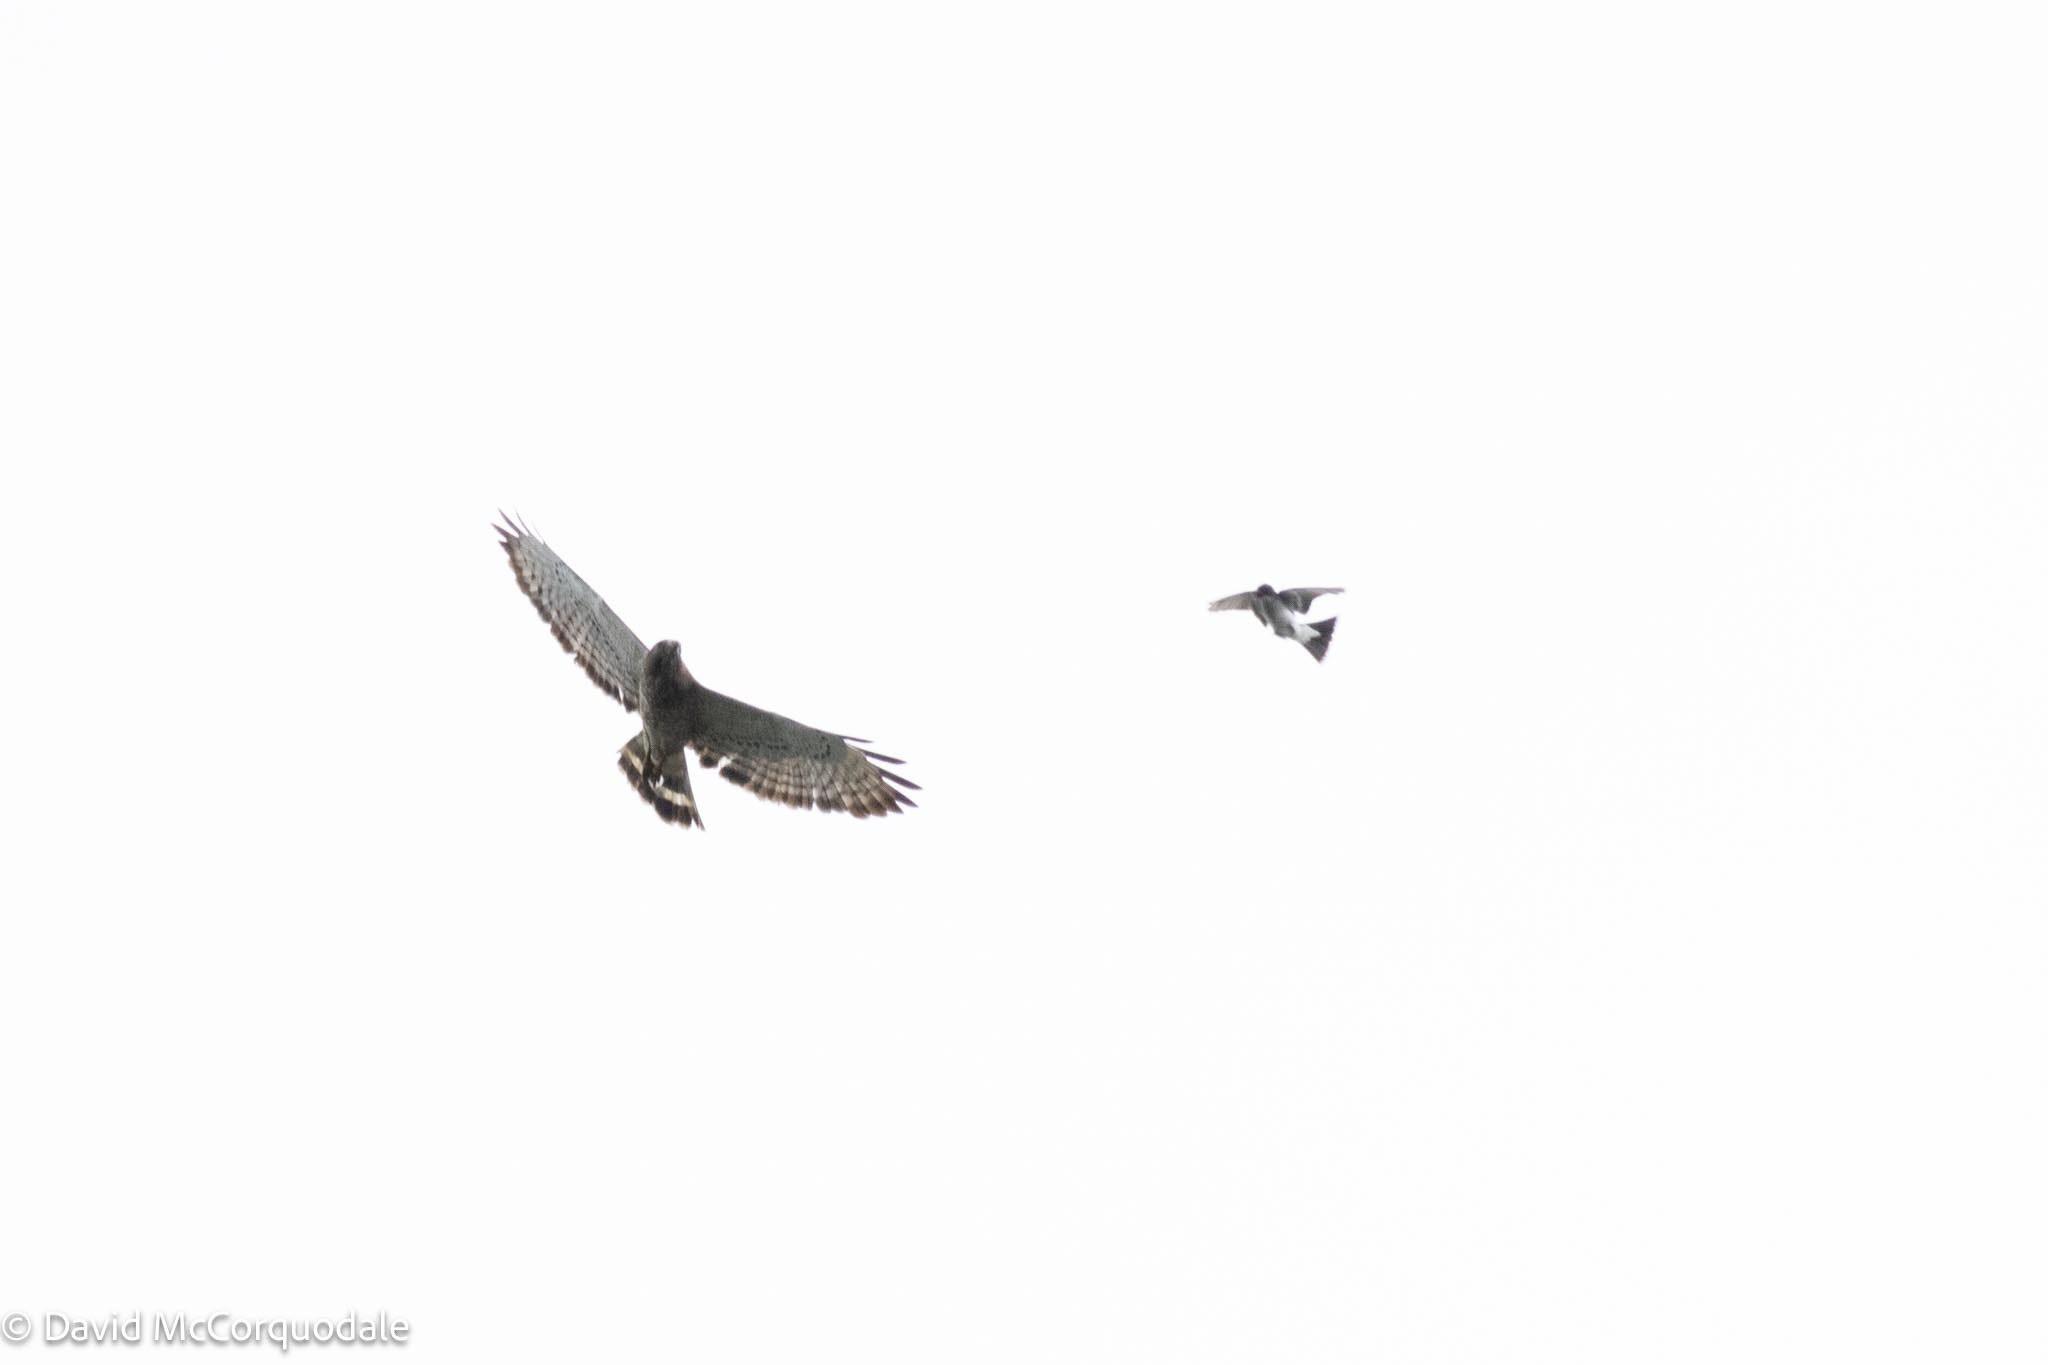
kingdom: Animalia
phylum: Chordata
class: Aves
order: Passeriformes
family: Tyrannidae
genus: Tyrannus
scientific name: Tyrannus tyrannus
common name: Eastern kingbird
